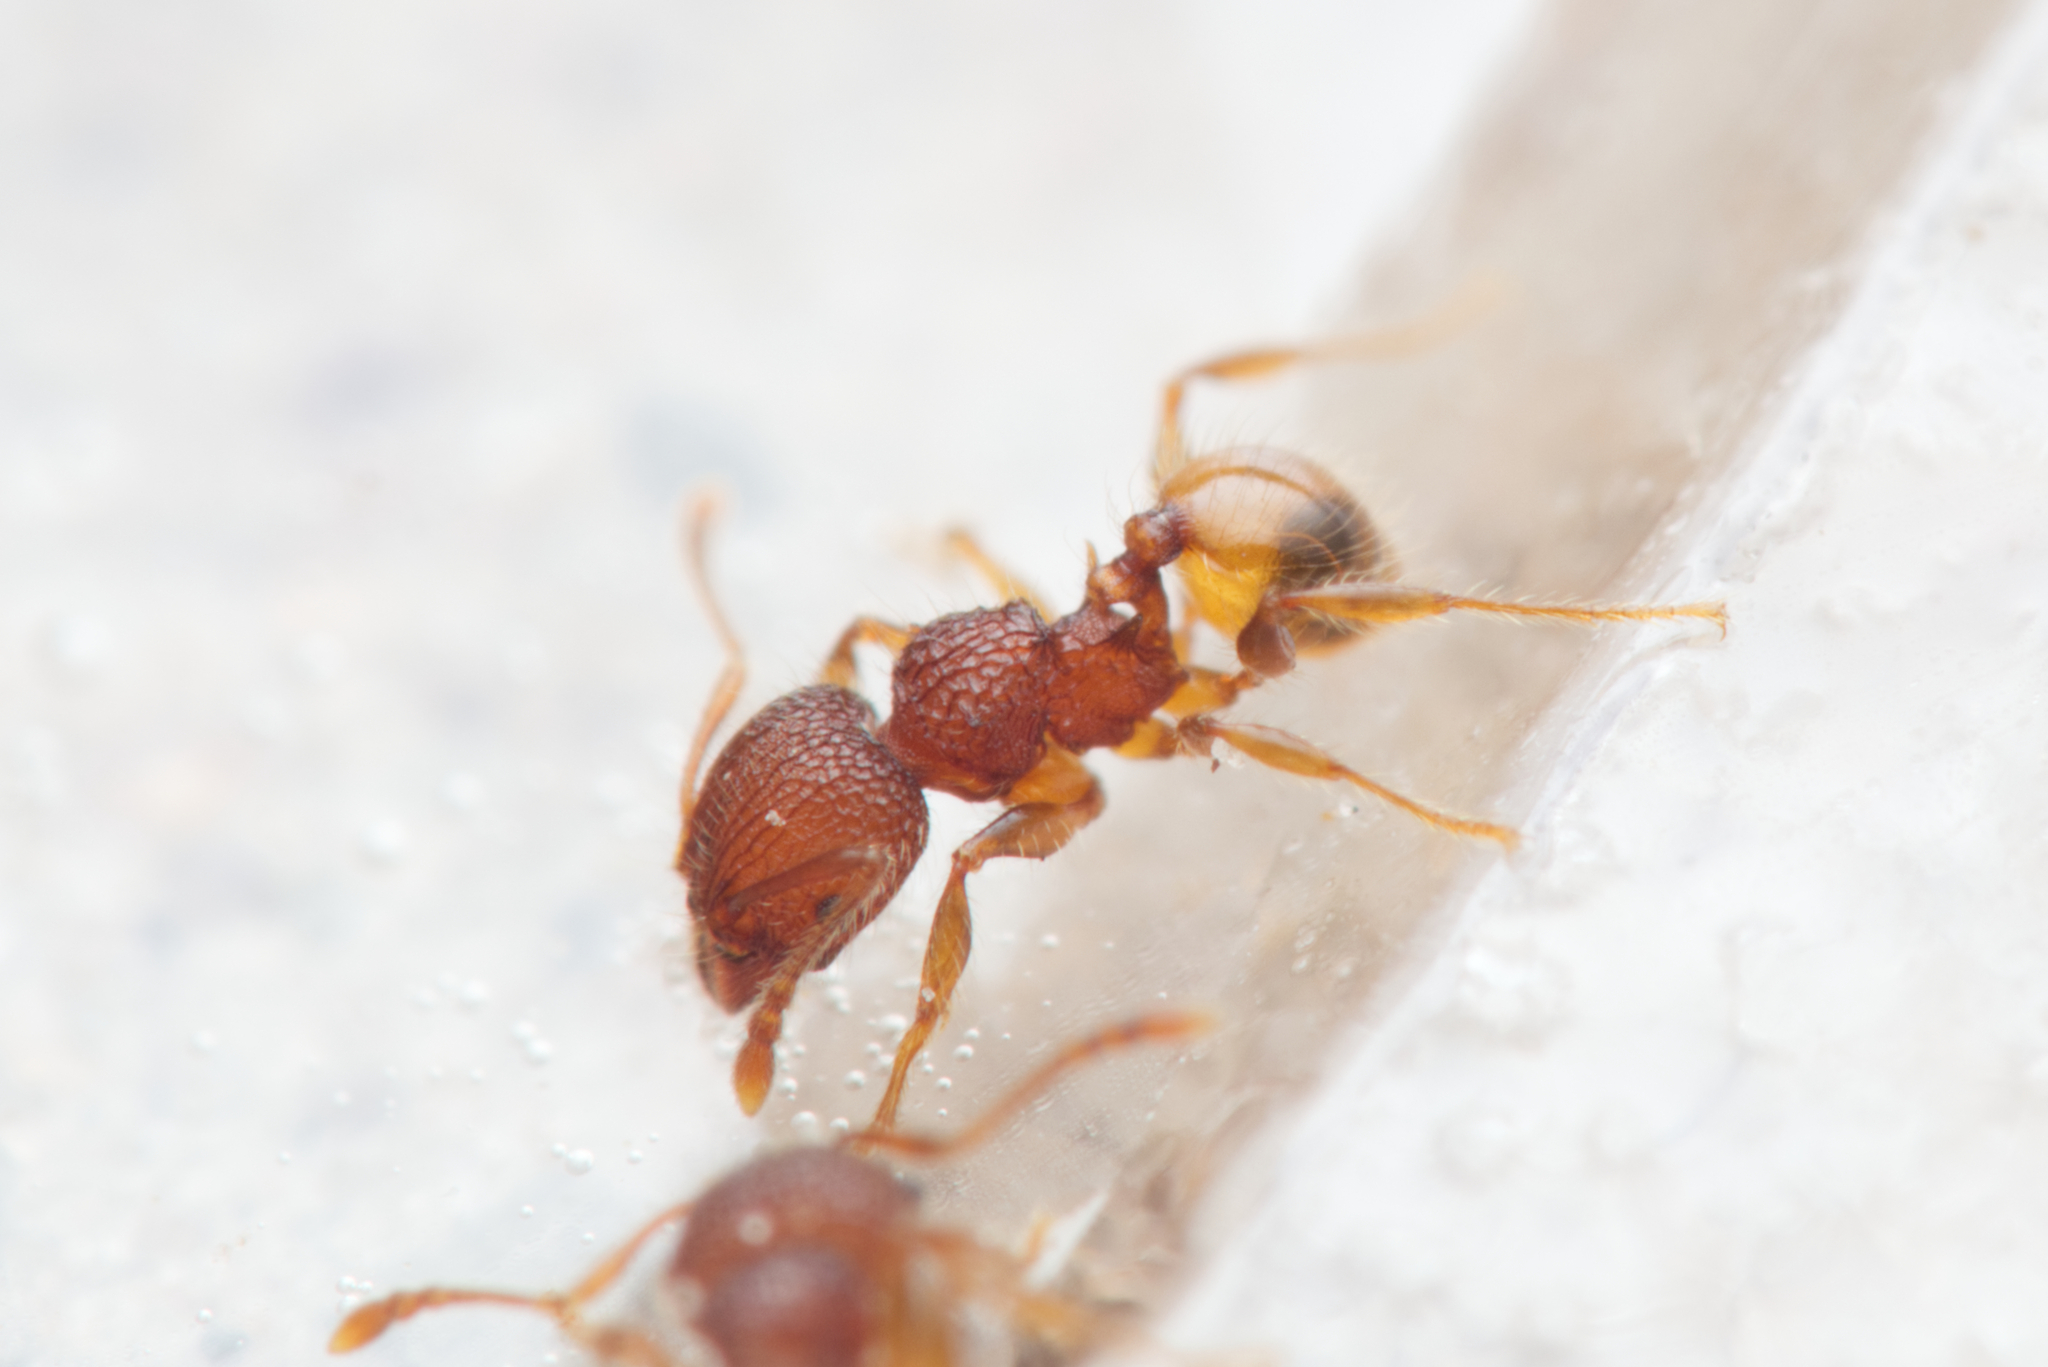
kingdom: Animalia
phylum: Arthropoda
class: Insecta
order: Hymenoptera
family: Formicidae
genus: Pheidole
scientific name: Pheidole longiceps
